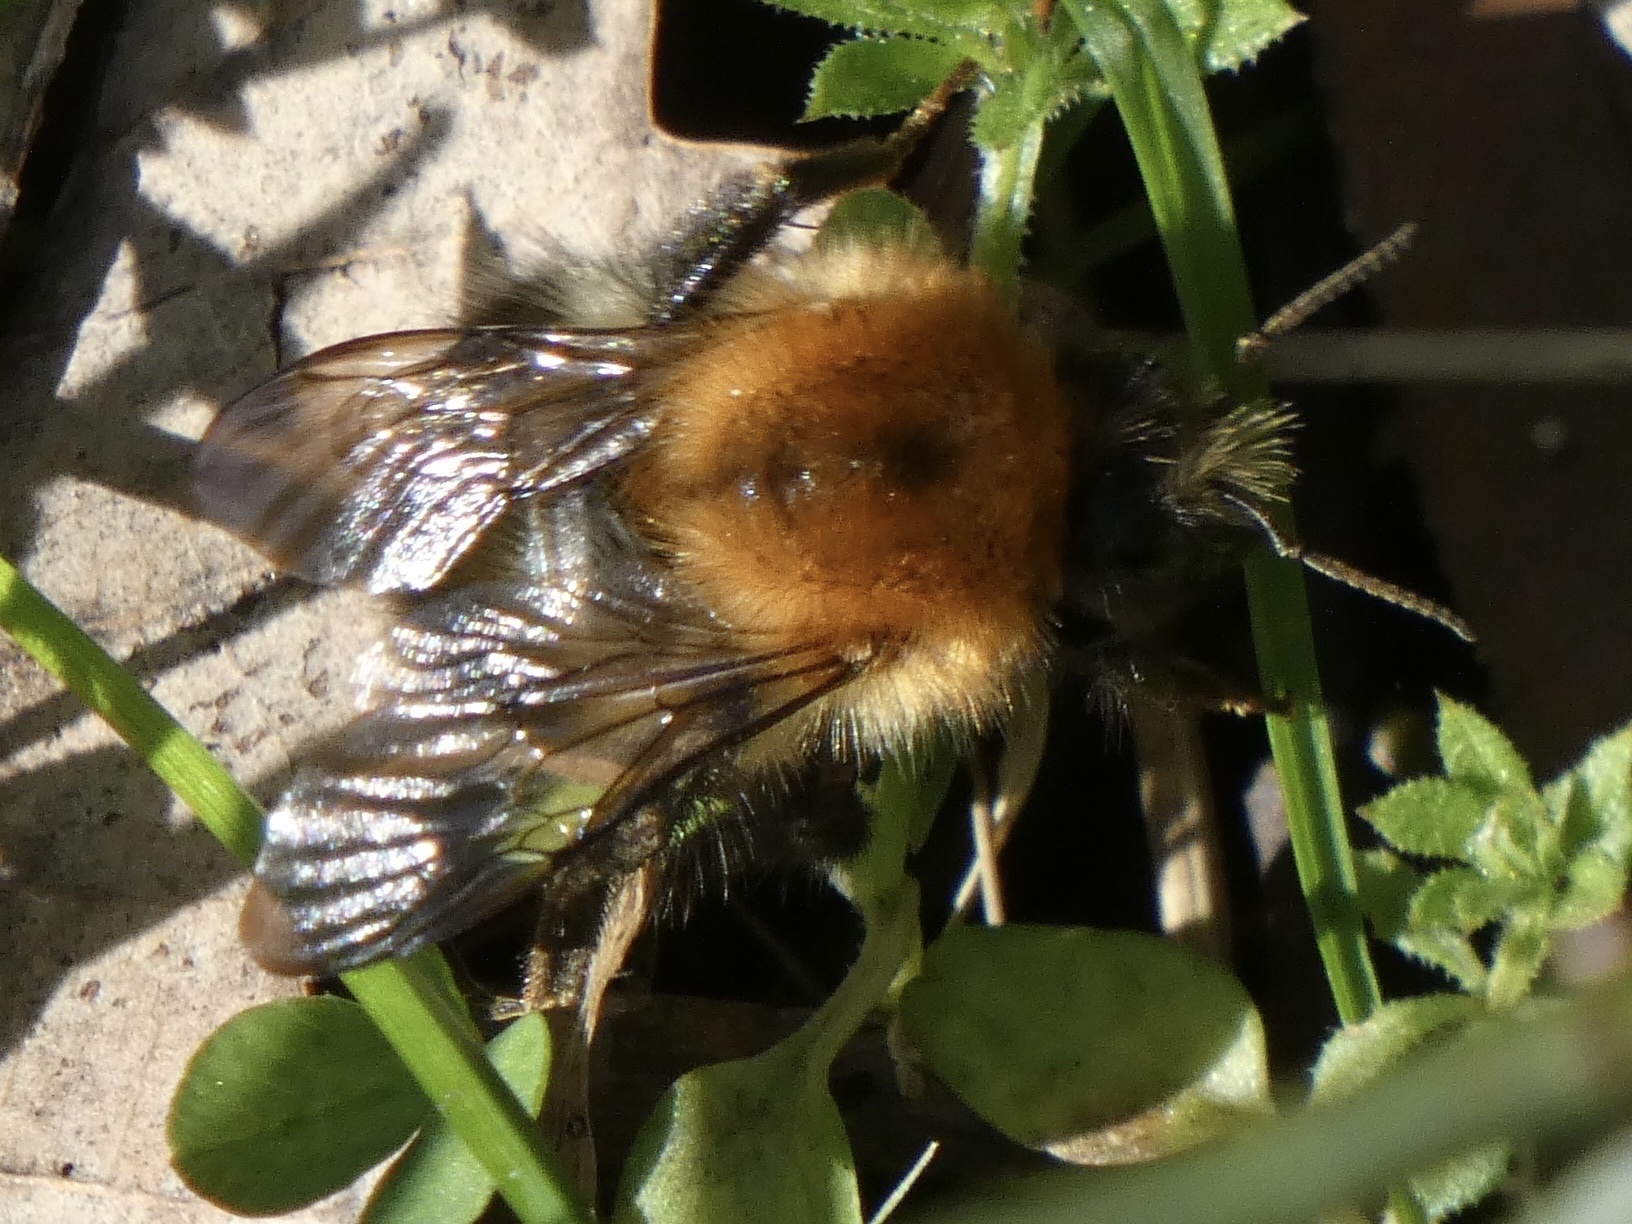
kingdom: Animalia
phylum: Arthropoda
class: Insecta
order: Hymenoptera
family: Apidae
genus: Bombus
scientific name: Bombus pascuorum
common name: Common carder bee
